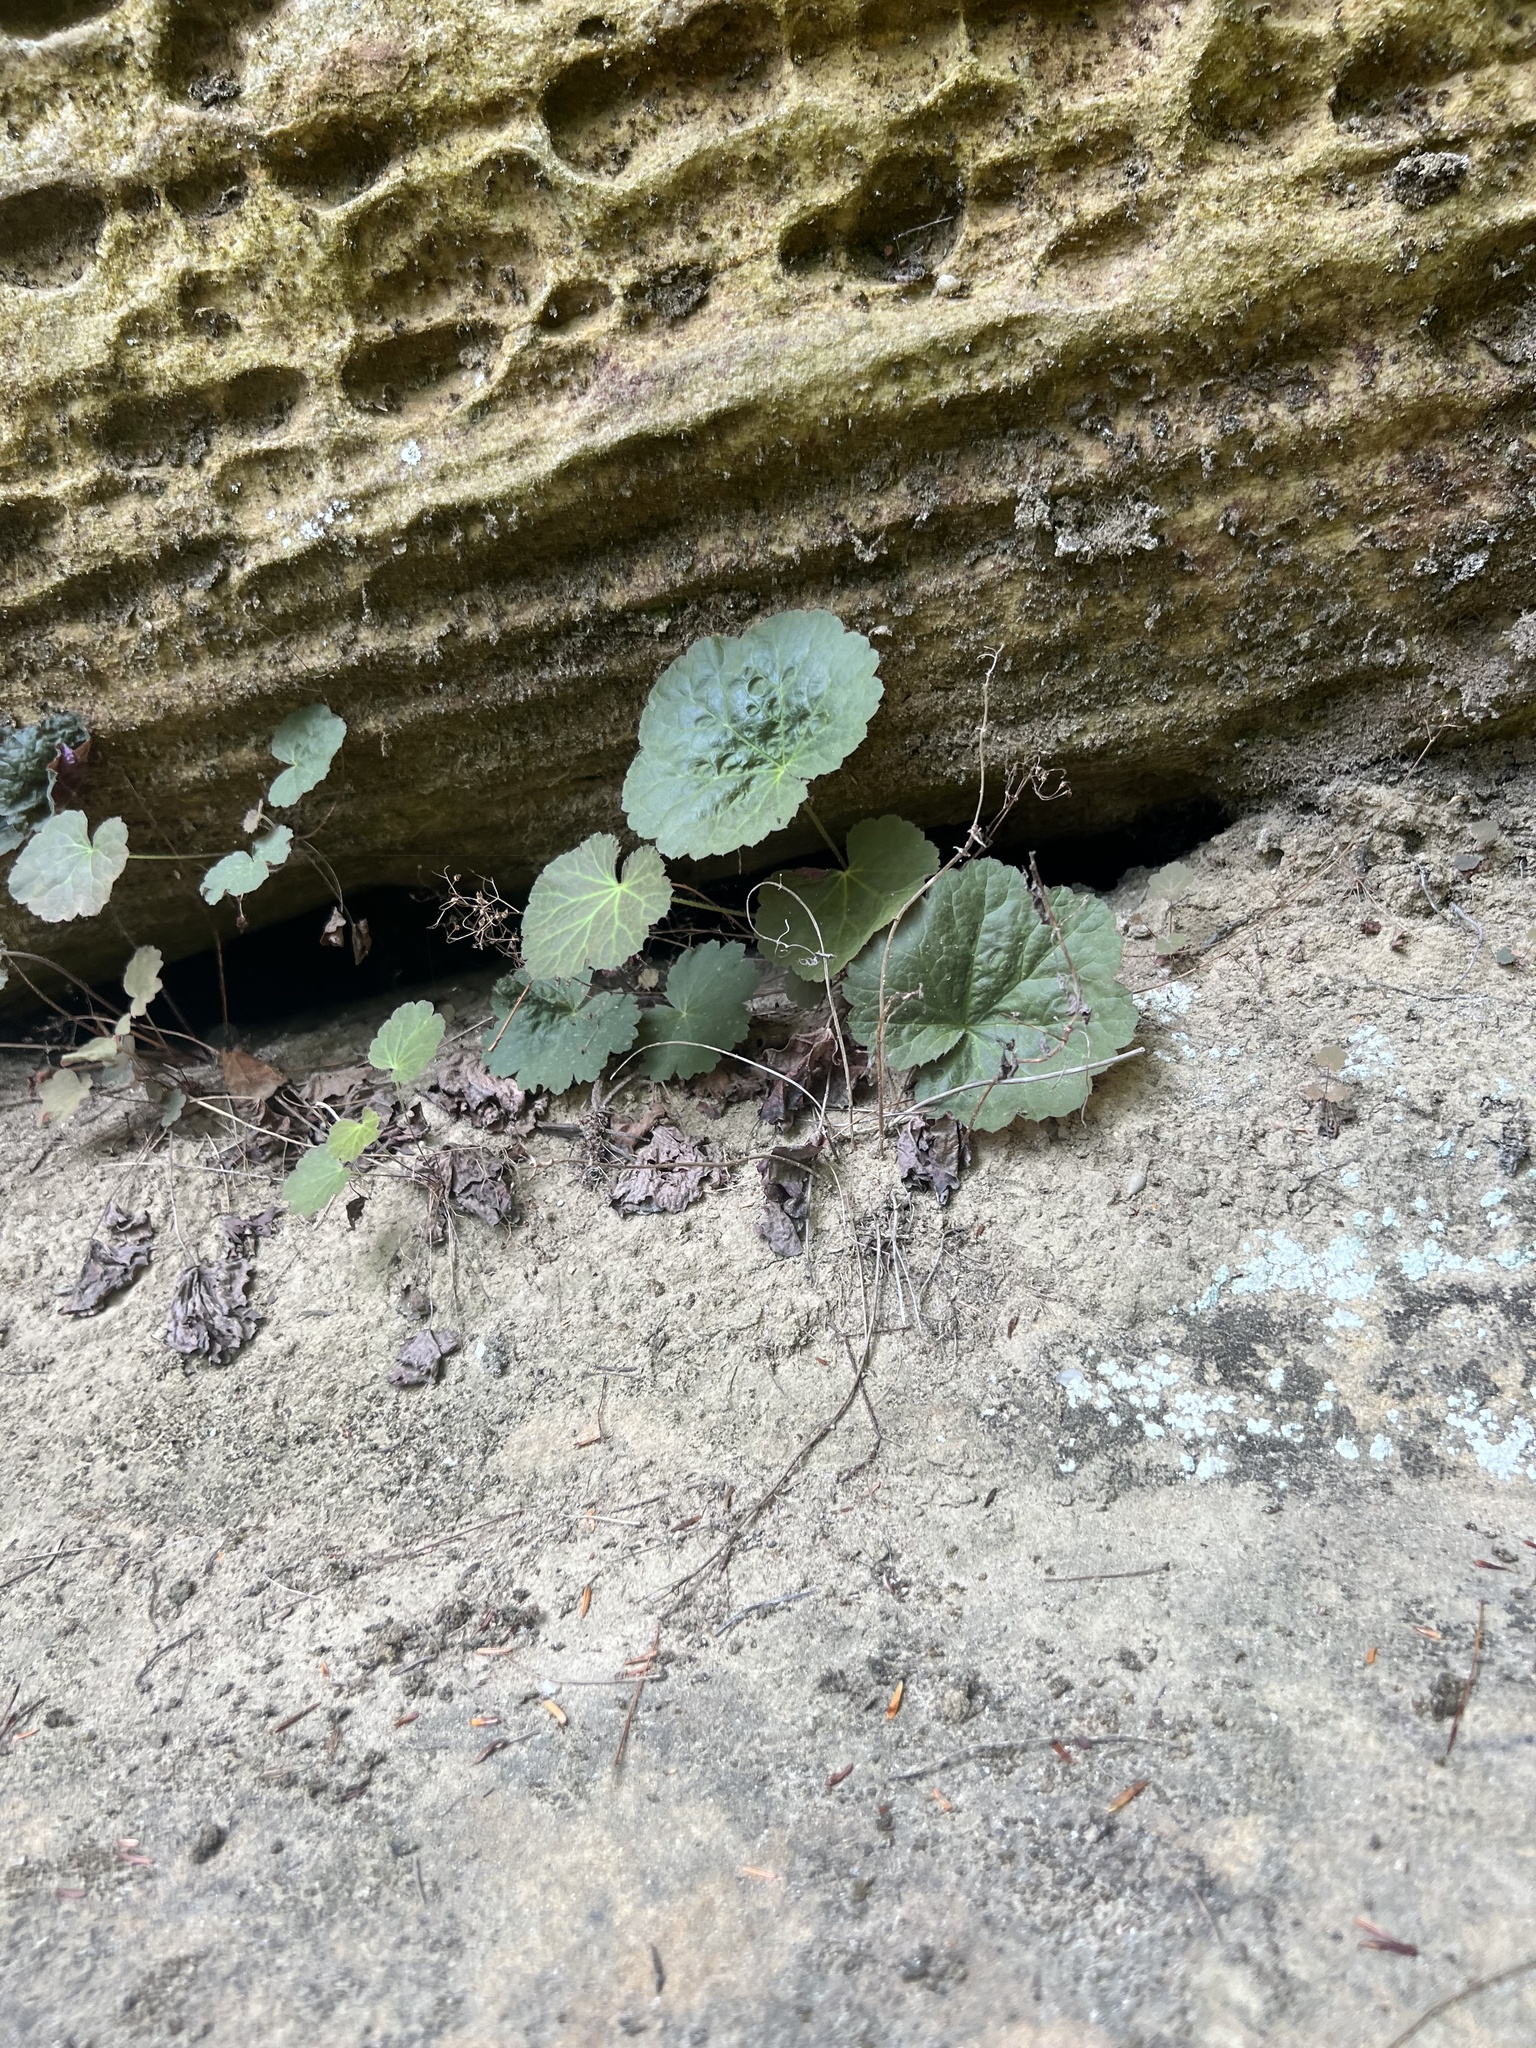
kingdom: Plantae
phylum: Tracheophyta
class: Magnoliopsida
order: Saxifragales
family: Saxifragaceae
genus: Heuchera
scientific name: Heuchera parviflora
